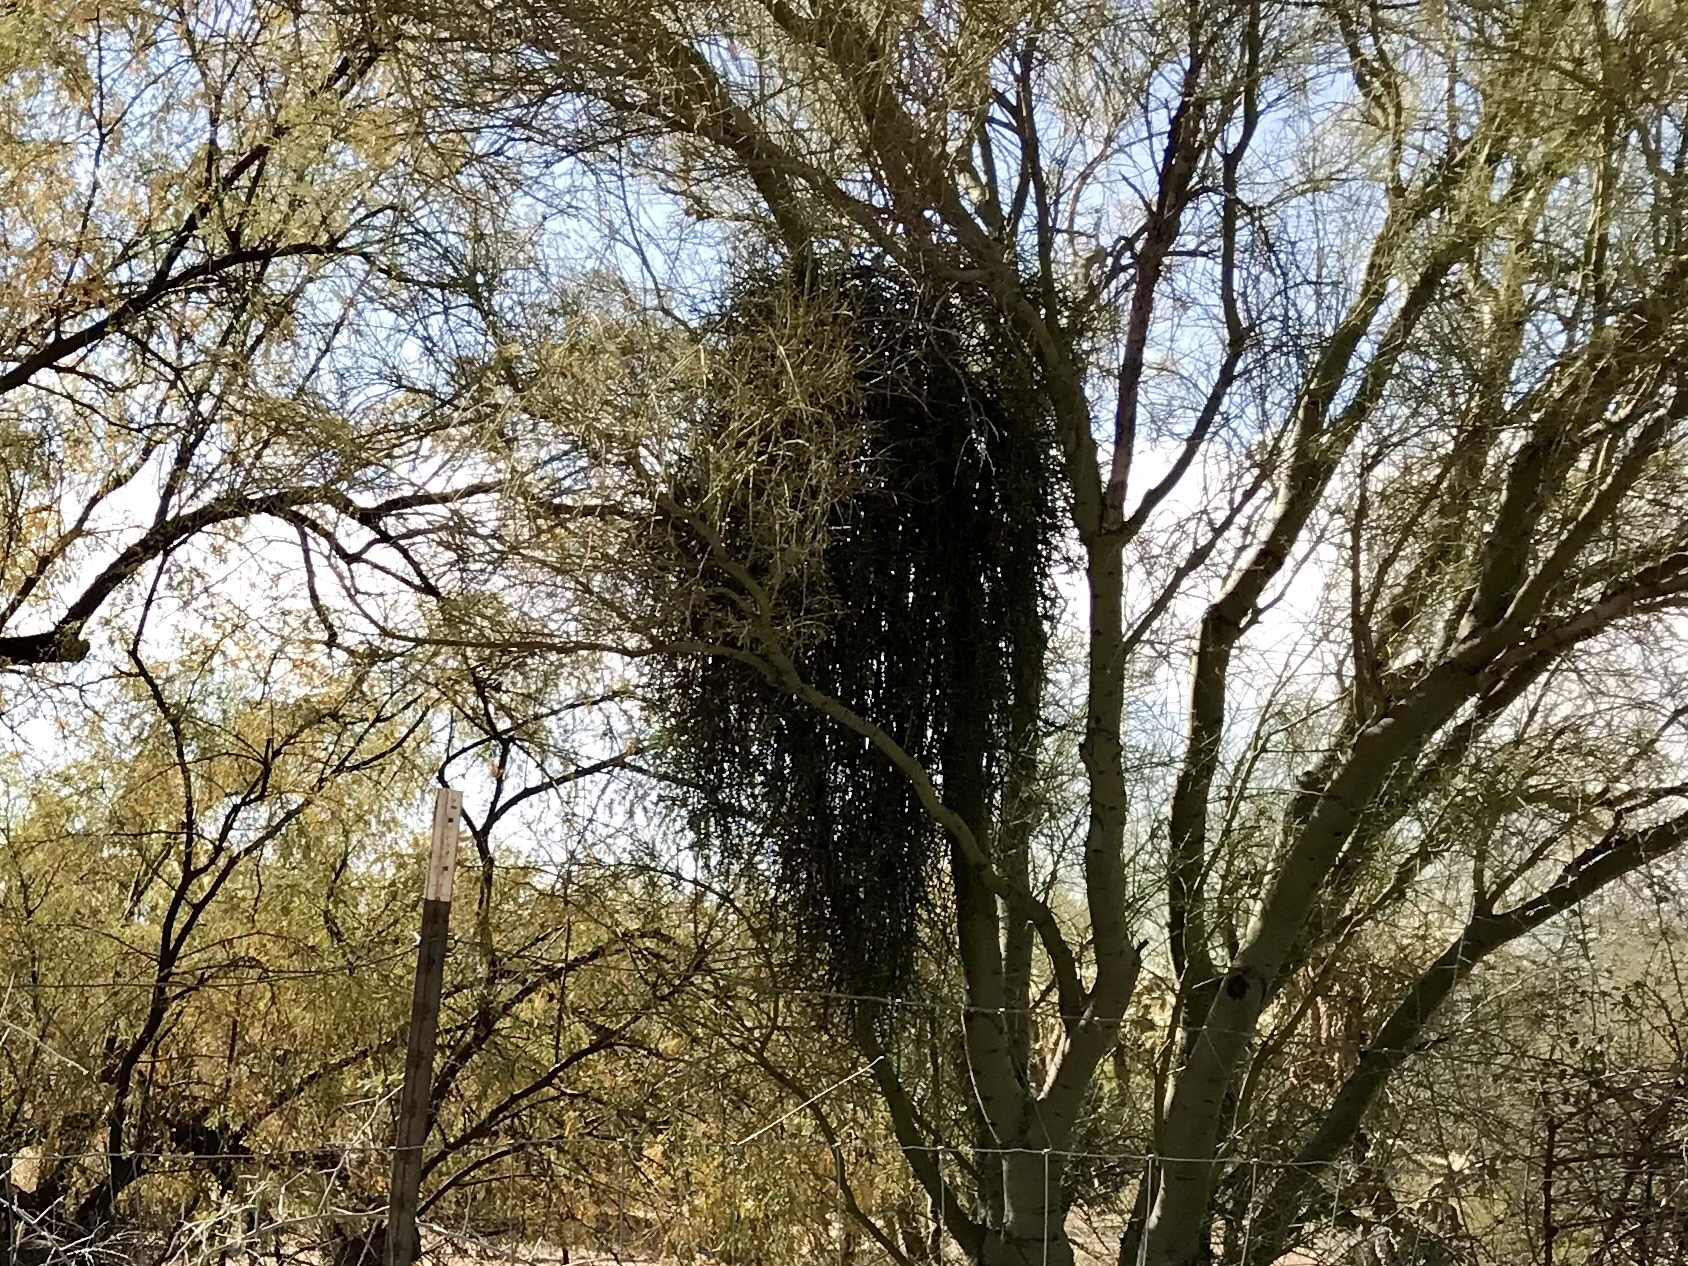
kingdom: Plantae
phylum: Tracheophyta
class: Magnoliopsida
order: Santalales
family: Viscaceae
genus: Phoradendron
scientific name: Phoradendron californicum
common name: Acacia mistletoe
